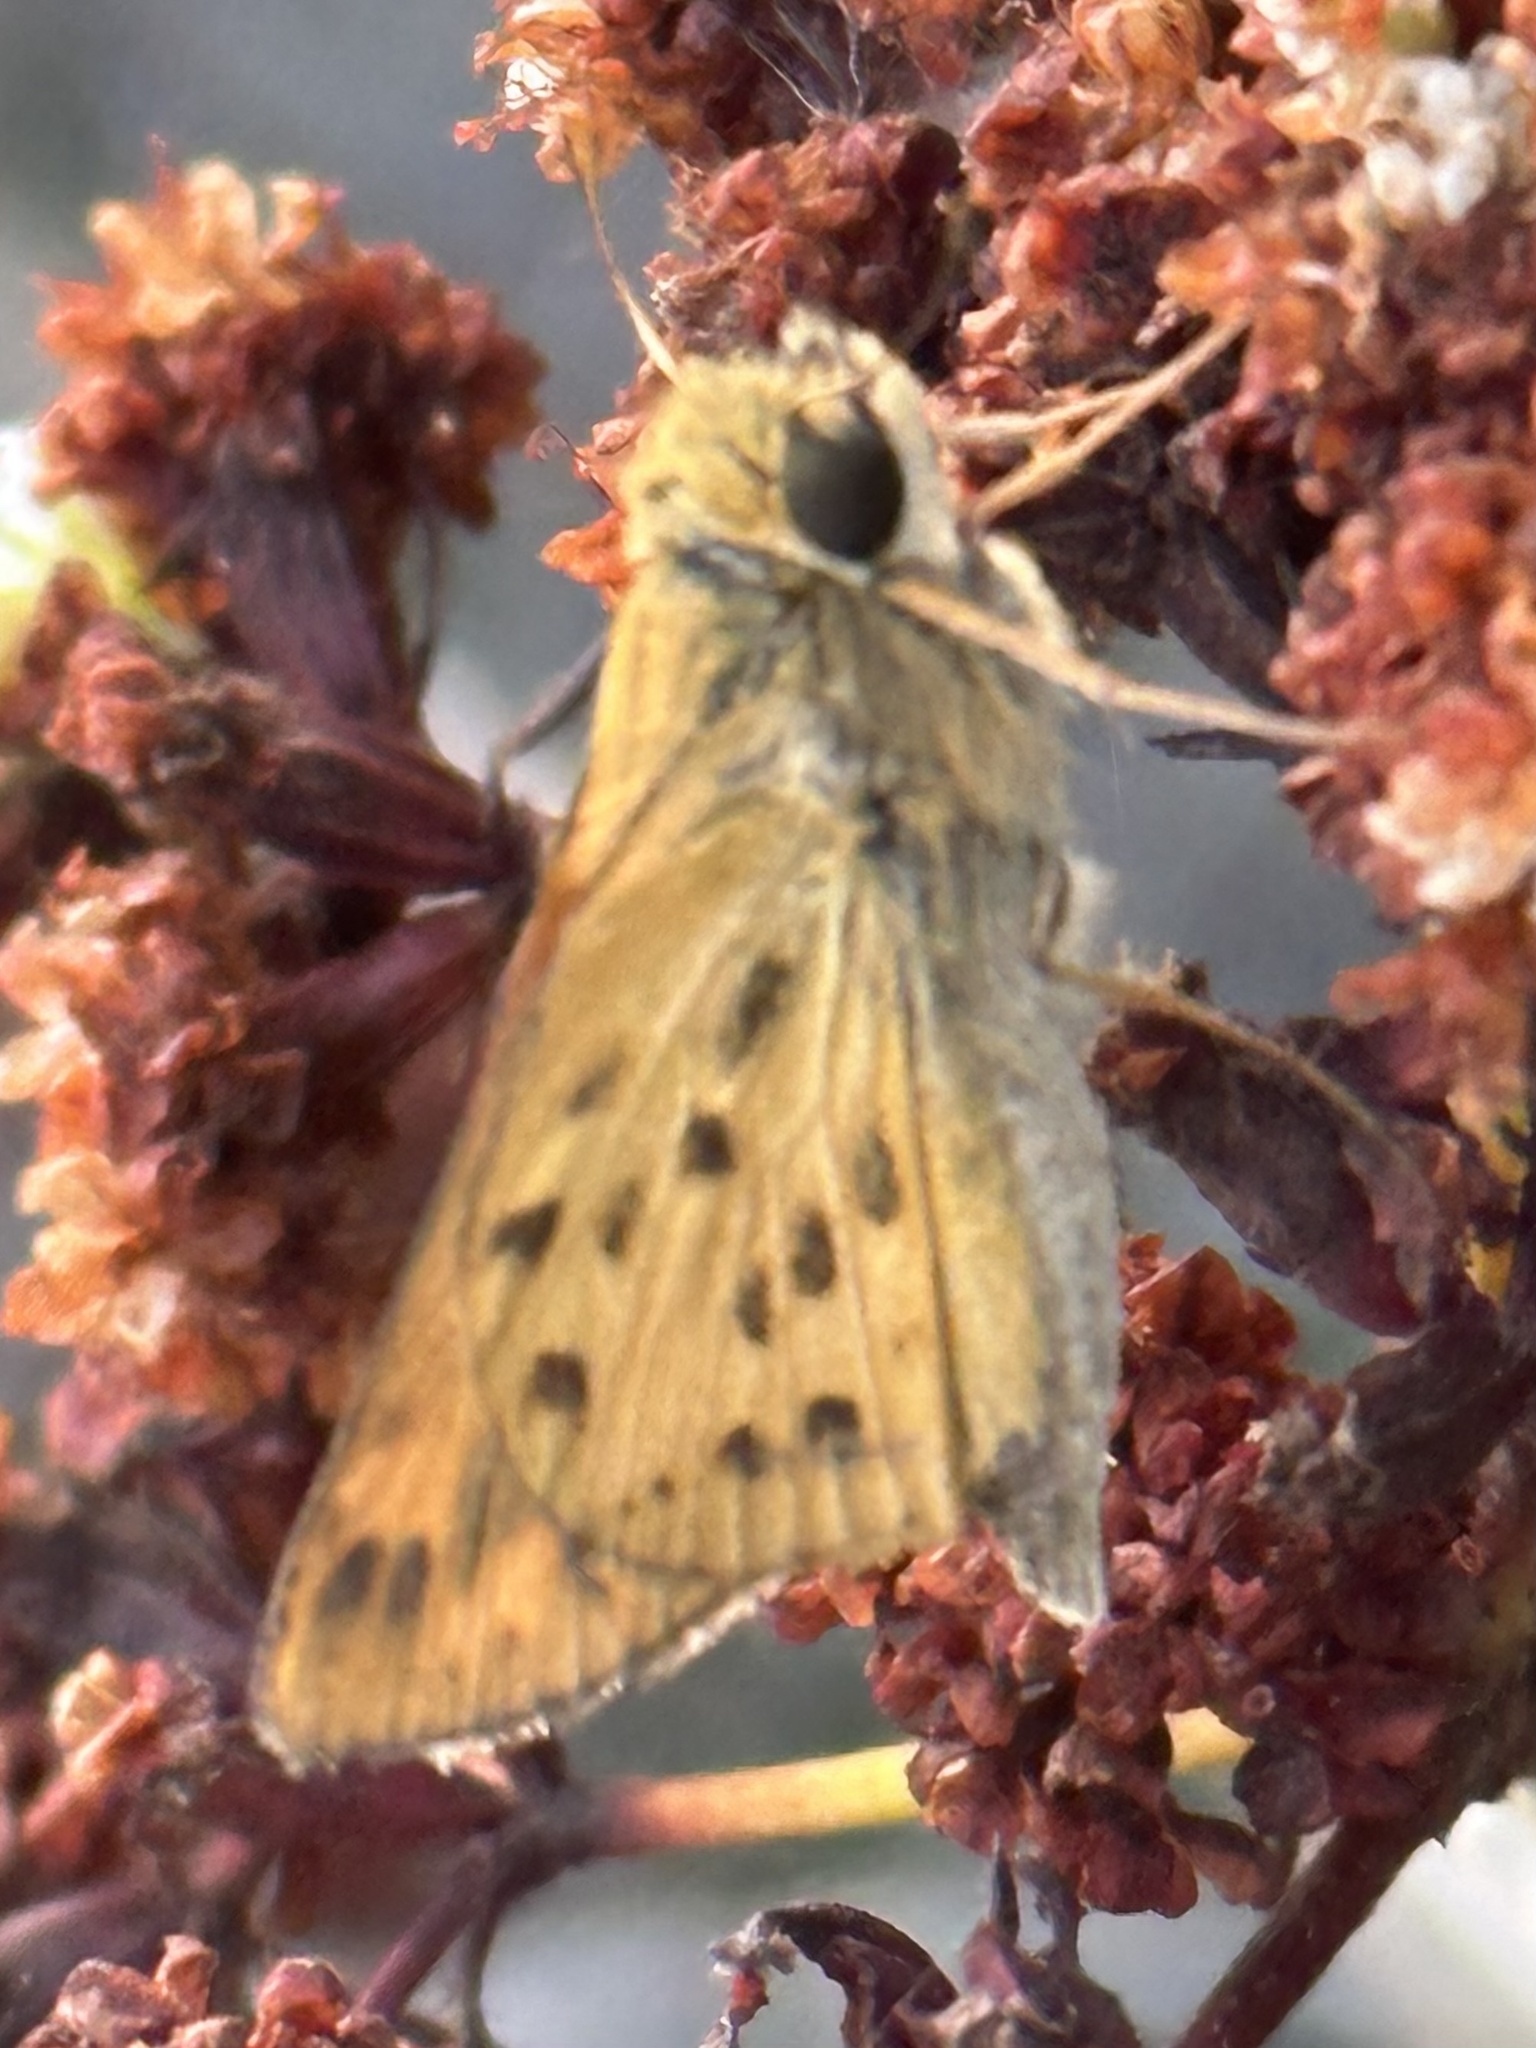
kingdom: Animalia
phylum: Arthropoda
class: Insecta
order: Lepidoptera
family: Hesperiidae
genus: Hylephila
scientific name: Hylephila phyleus
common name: Fiery skipper
